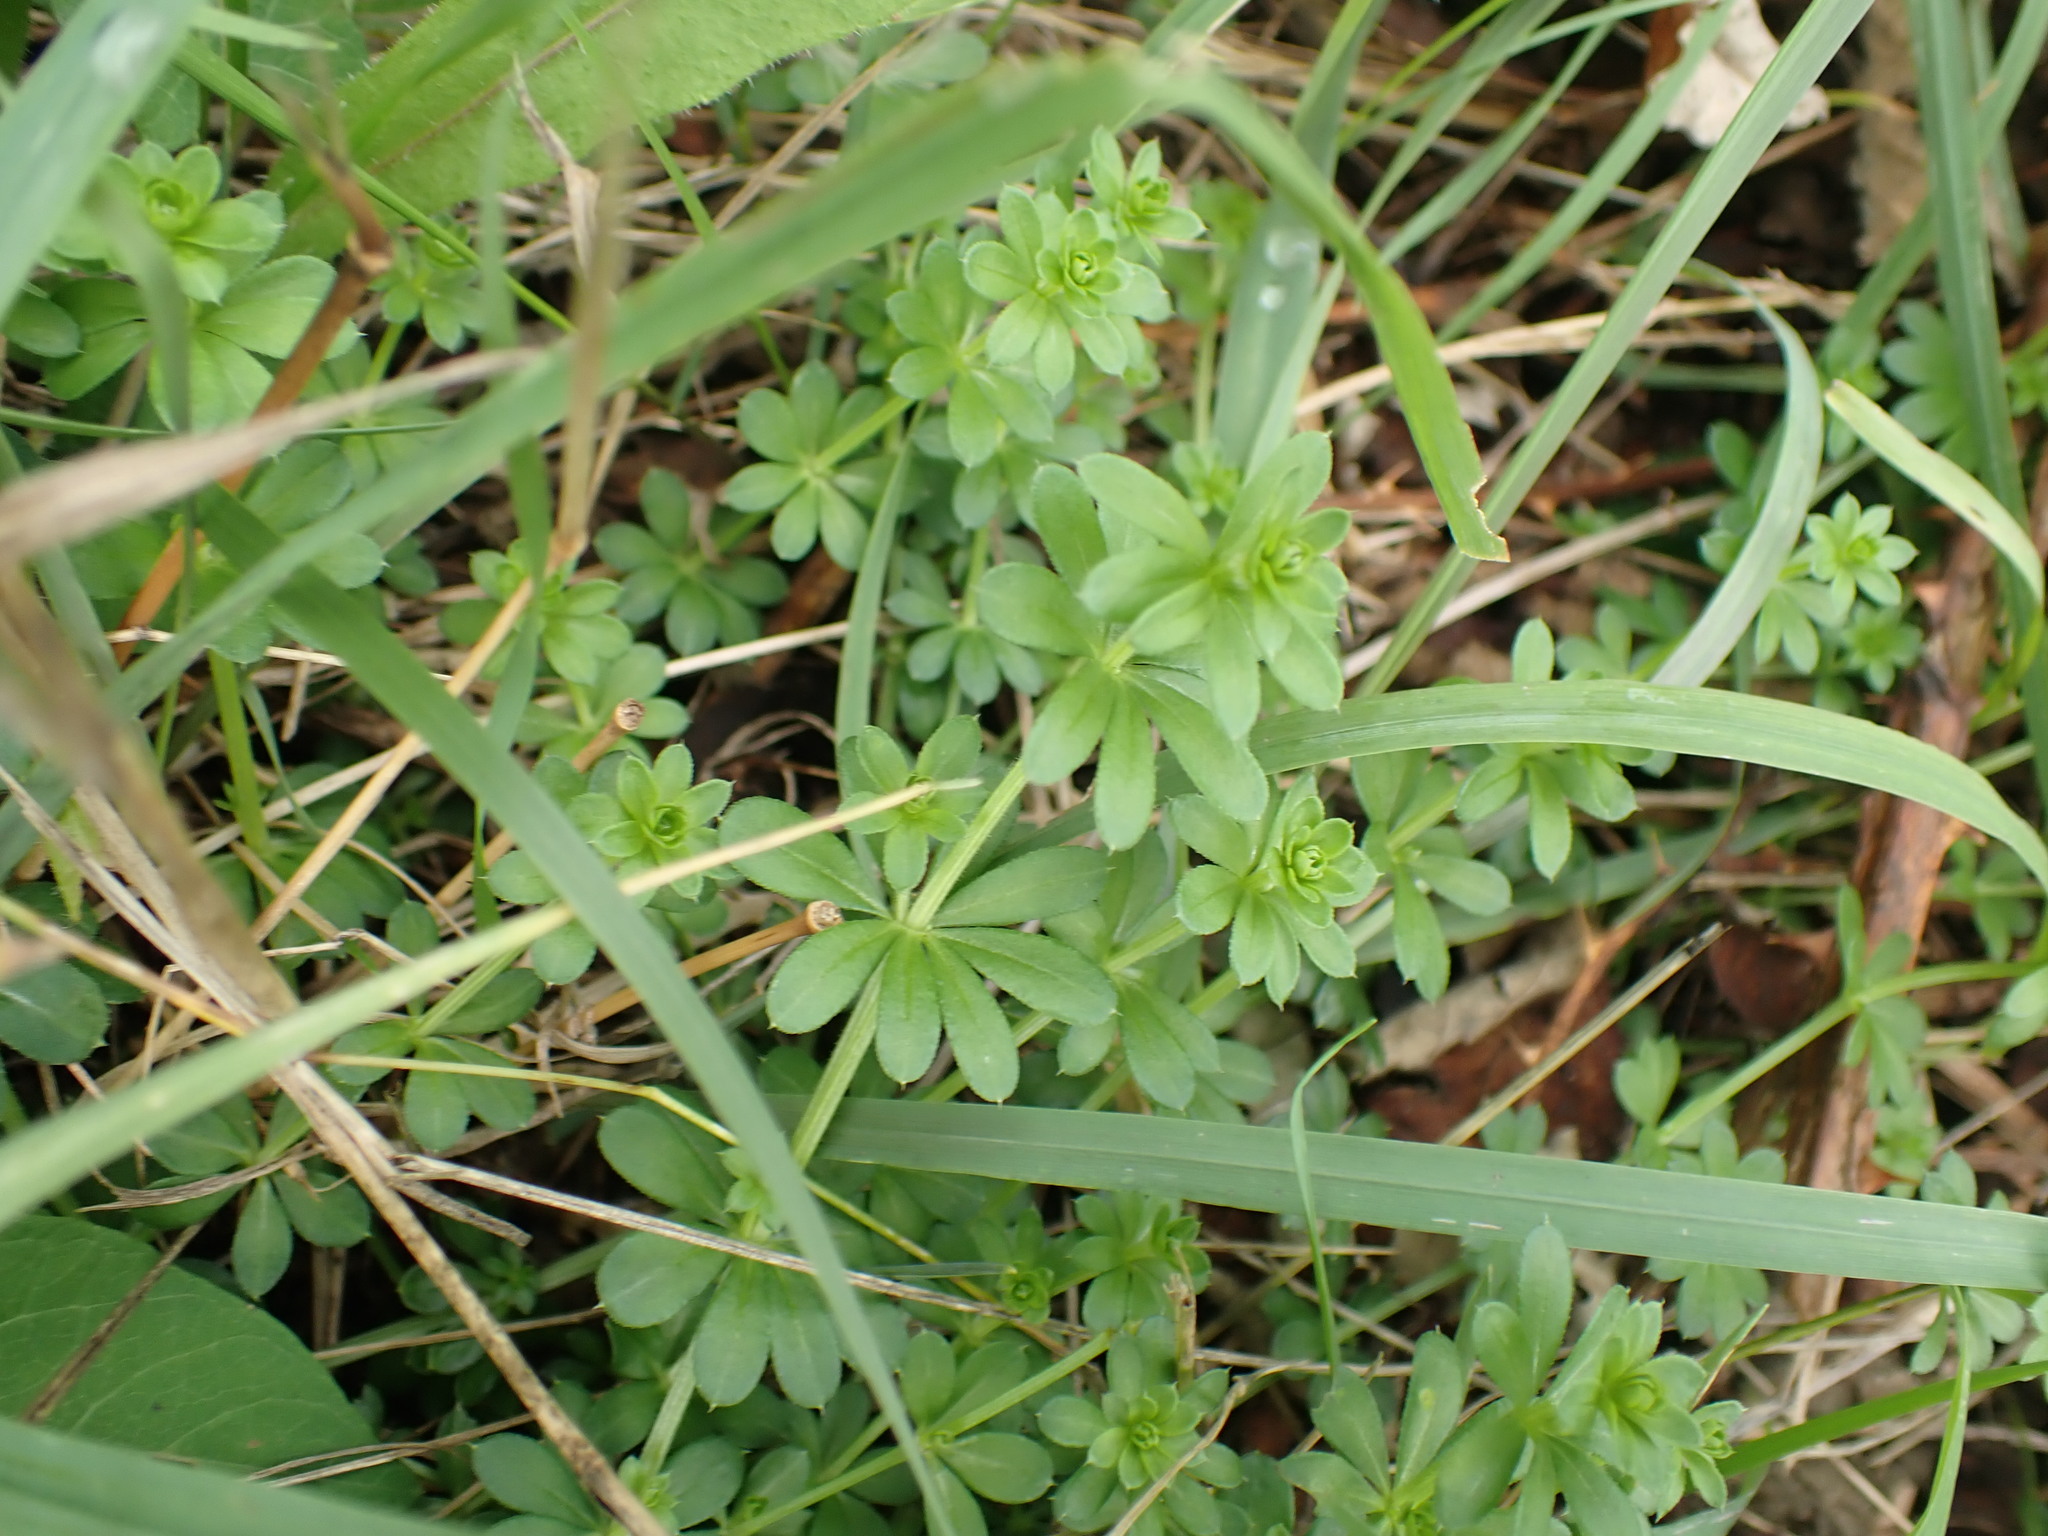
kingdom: Plantae
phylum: Tracheophyta
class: Magnoliopsida
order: Gentianales
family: Rubiaceae
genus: Galium
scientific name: Galium aparine
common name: Cleavers
